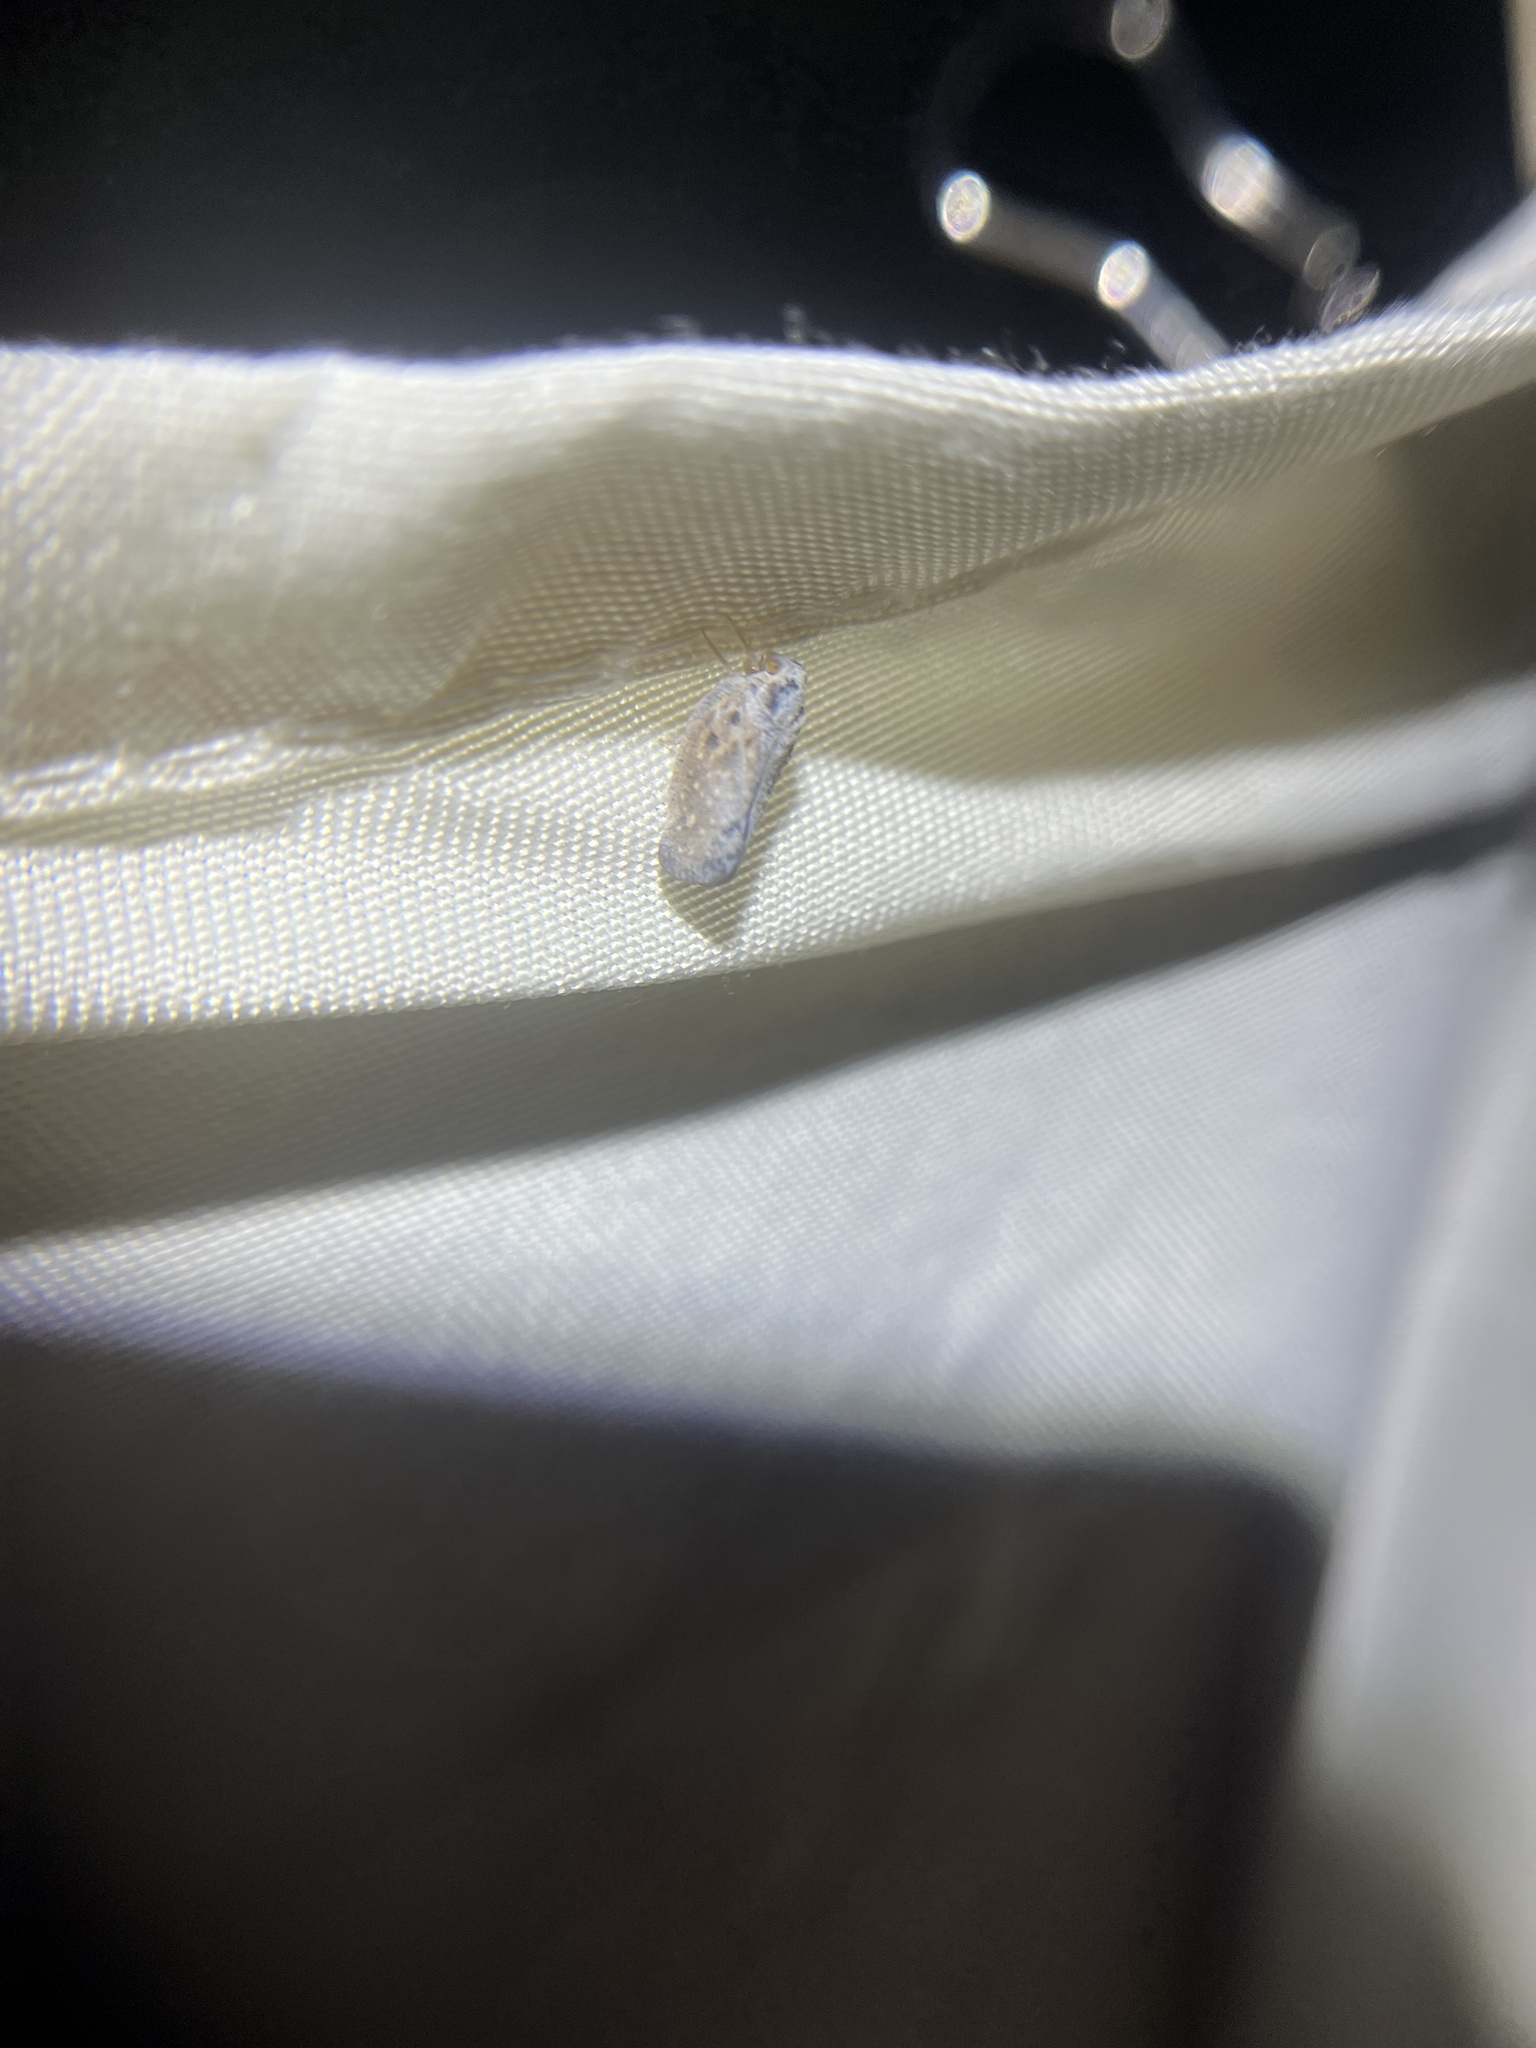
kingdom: Animalia
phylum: Arthropoda
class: Insecta
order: Hemiptera
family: Flatidae
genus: Metcalfa
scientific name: Metcalfa pruinosa
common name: Citrus flatid planthopper
